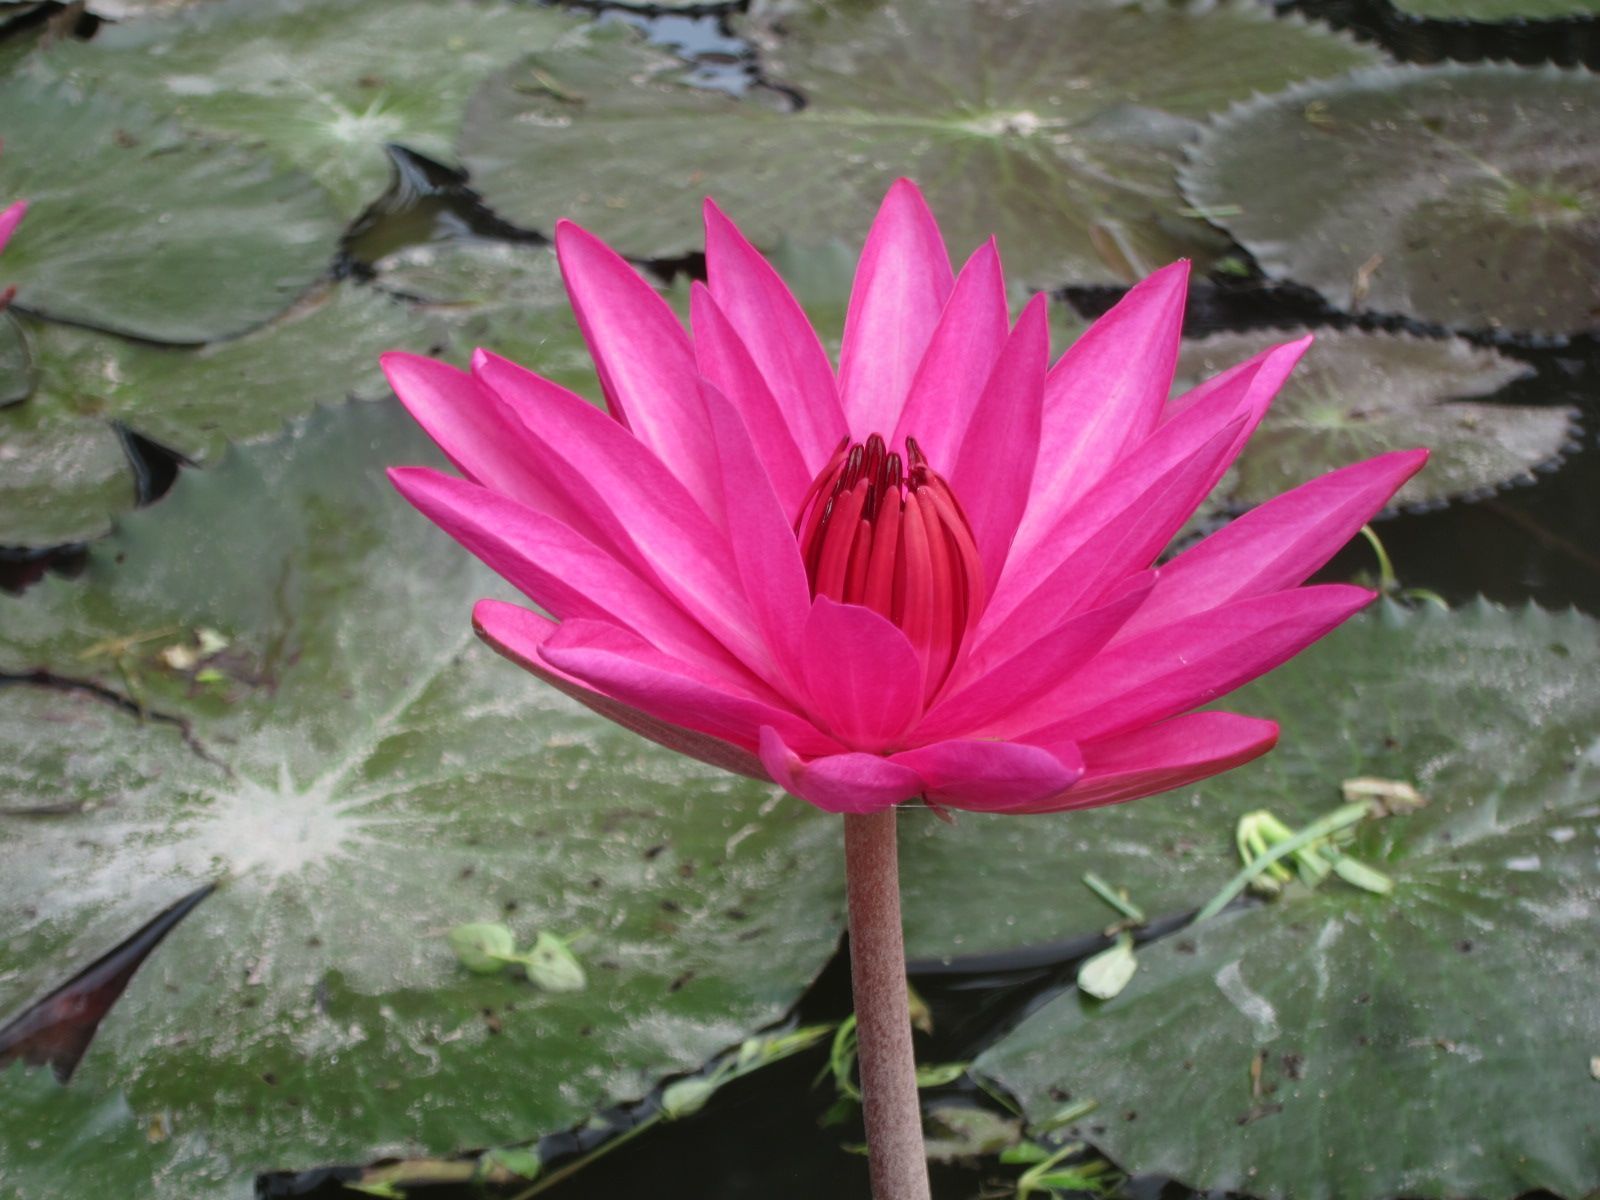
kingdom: Plantae
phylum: Tracheophyta
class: Magnoliopsida
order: Nymphaeales
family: Nymphaeaceae
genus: Nymphaea
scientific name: Nymphaea rubra
